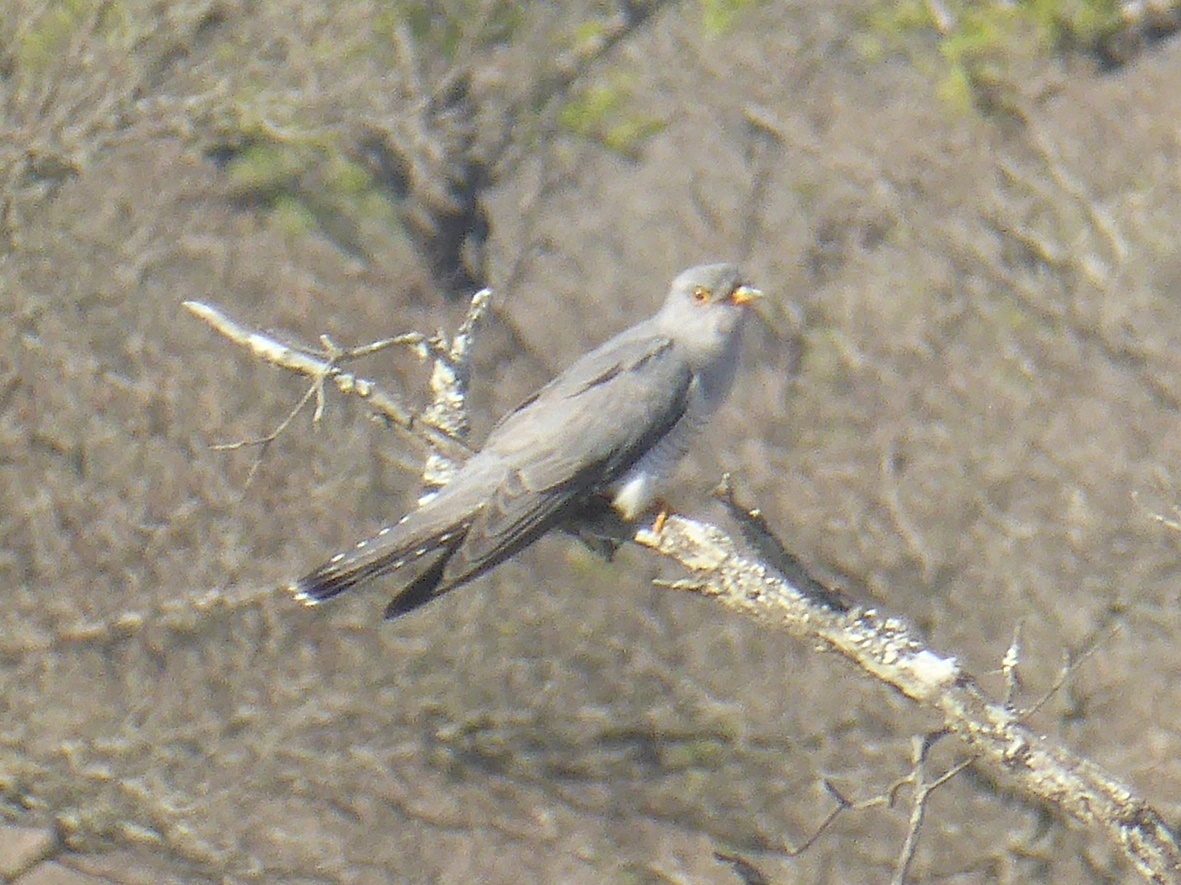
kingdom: Animalia
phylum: Chordata
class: Aves
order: Cuculiformes
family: Cuculidae
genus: Cuculus
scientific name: Cuculus gularis
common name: African cuckoo
